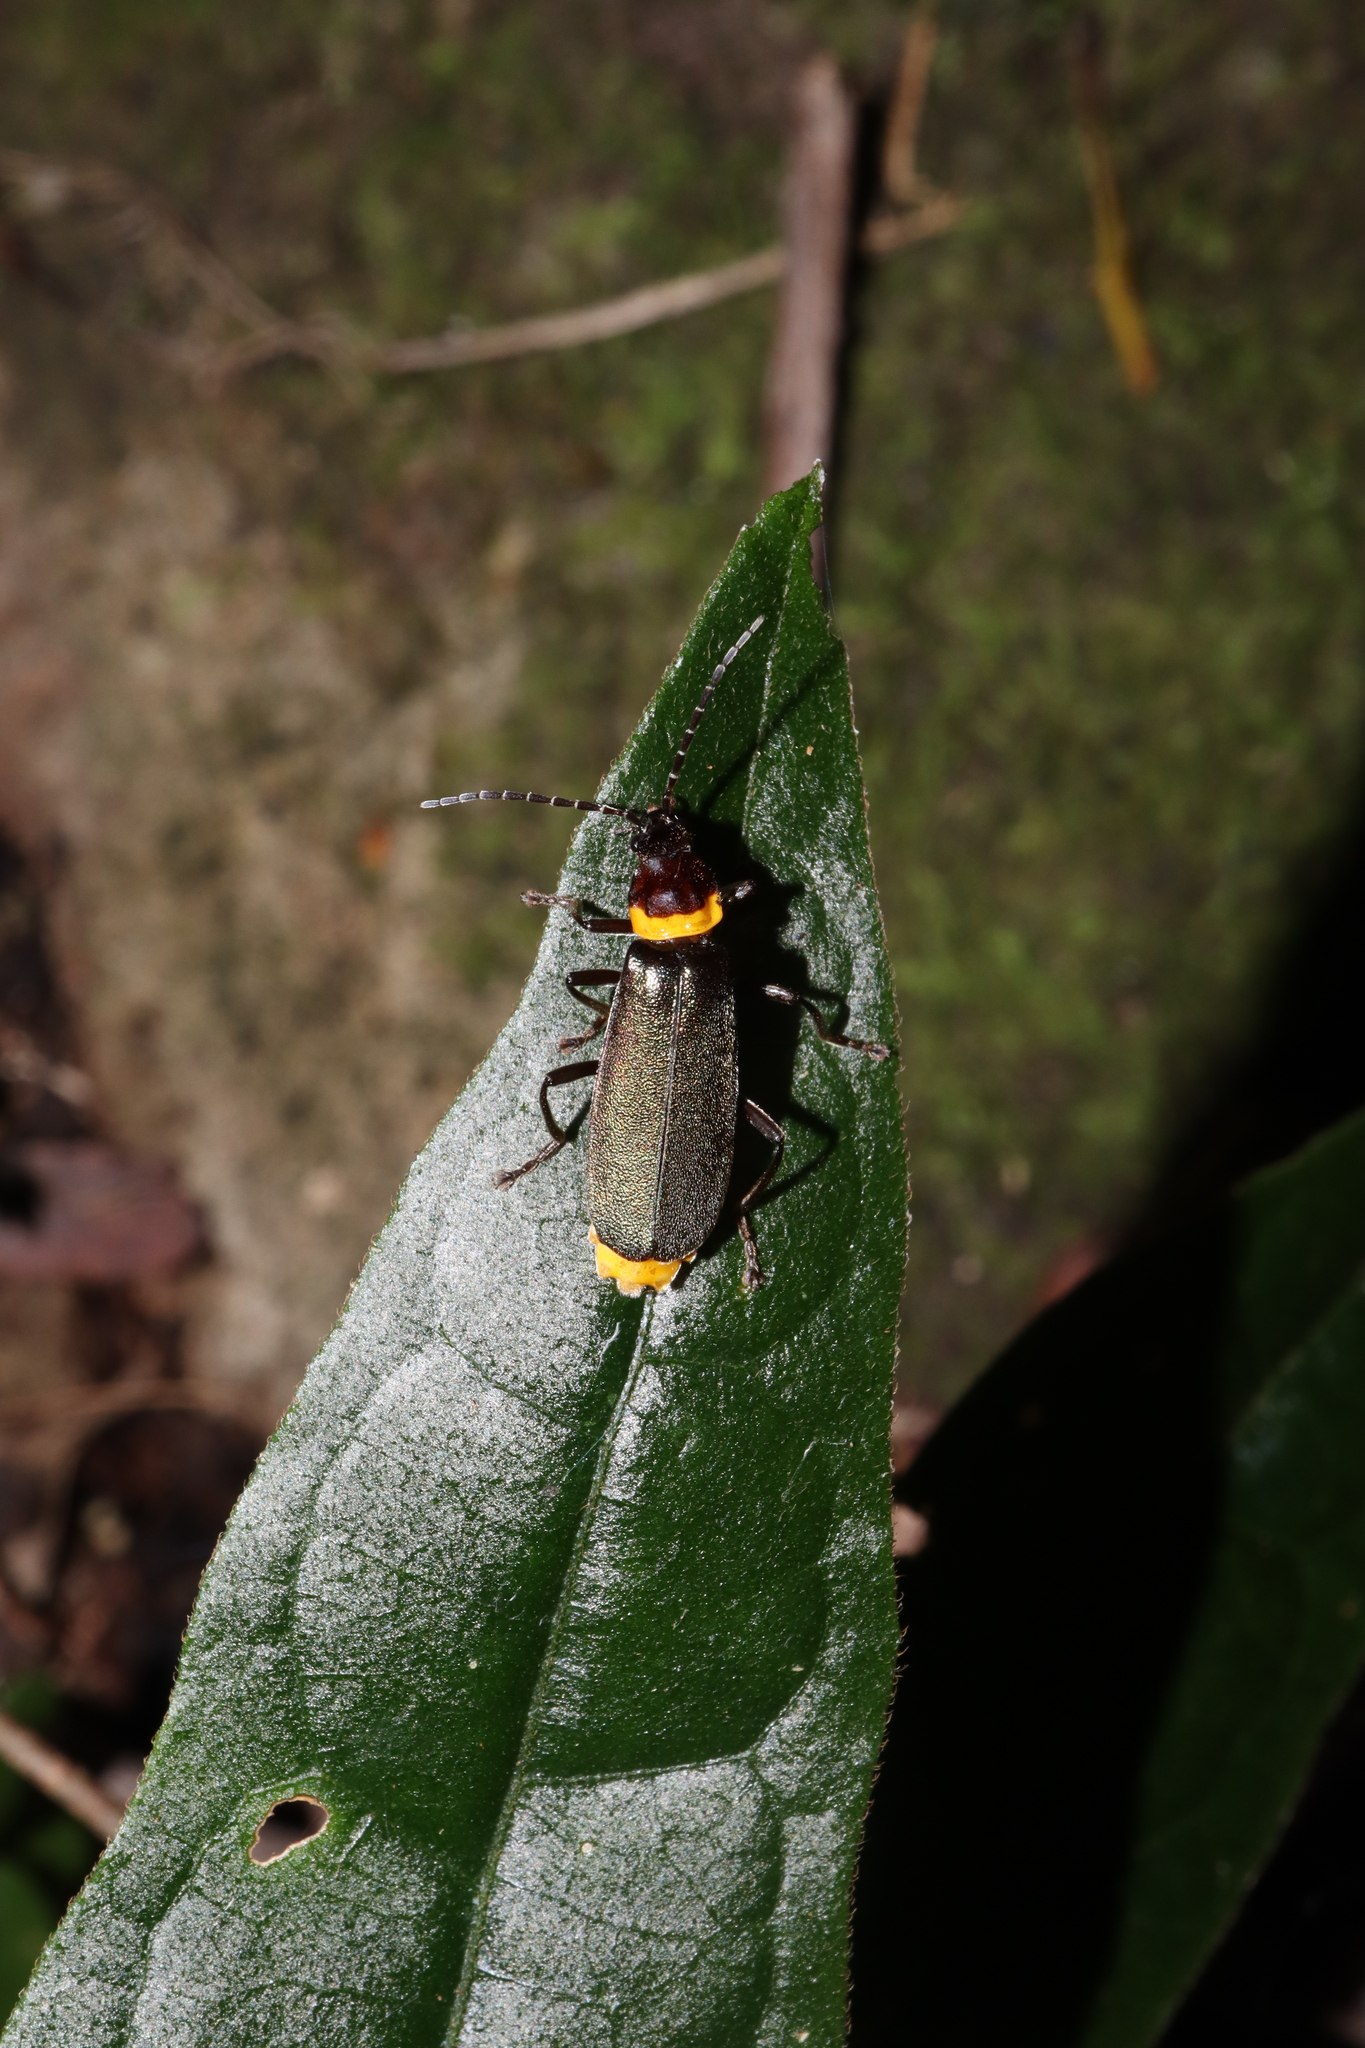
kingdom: Animalia
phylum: Arthropoda
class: Insecta
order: Coleoptera
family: Cantharidae
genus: Chauliognathus
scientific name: Chauliognathus
